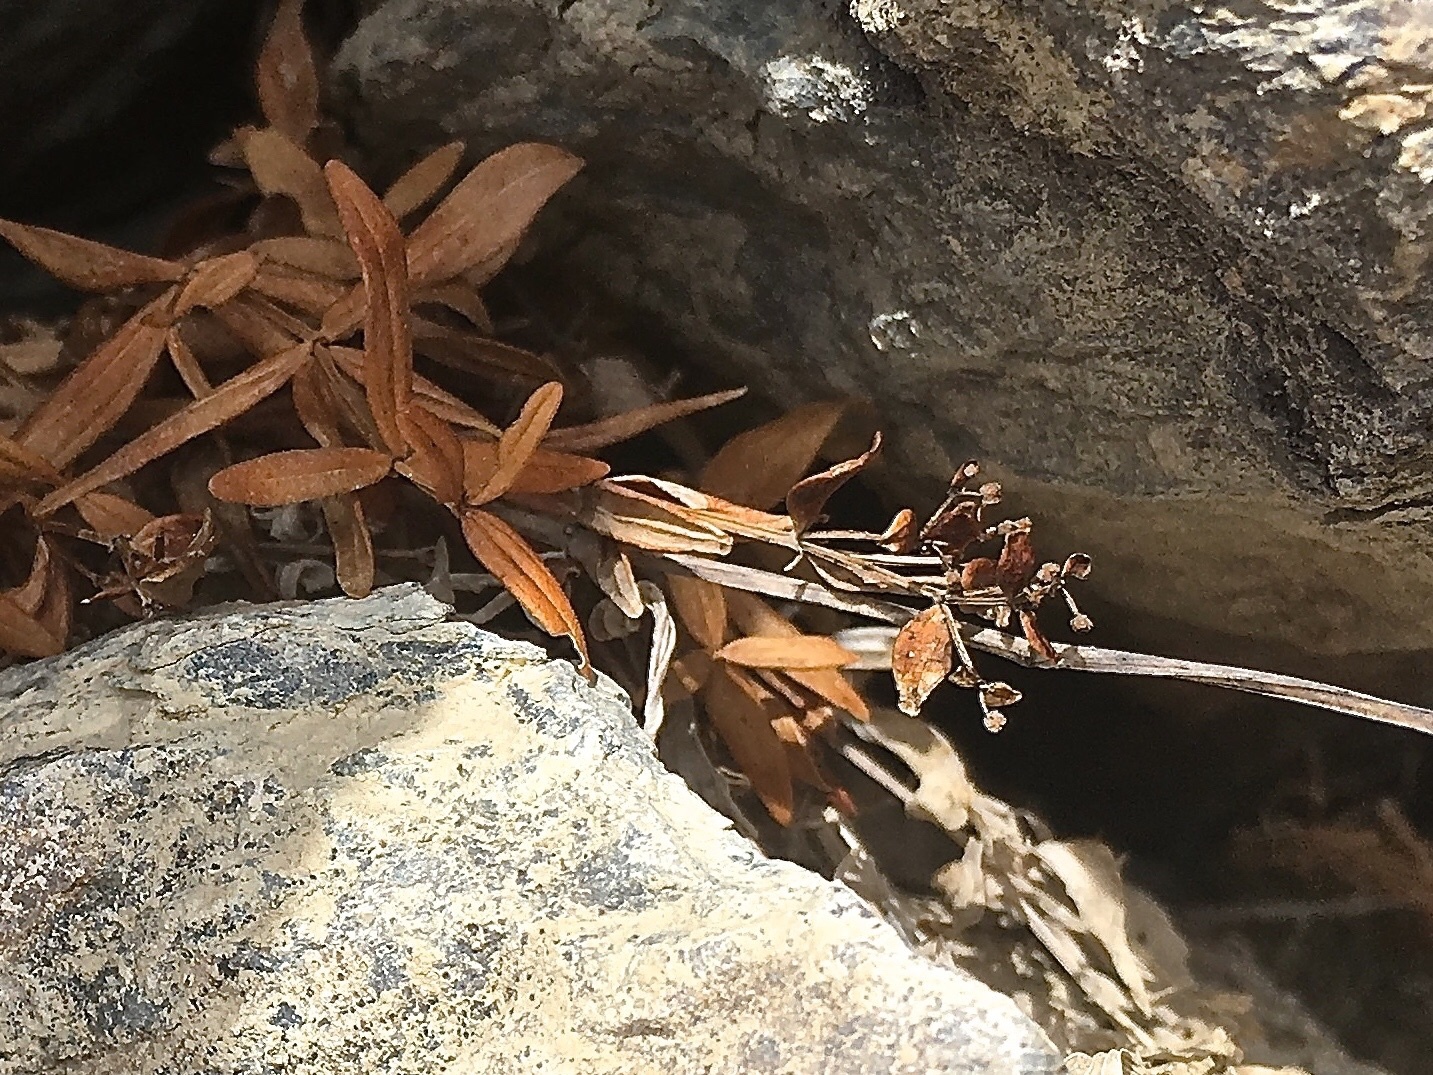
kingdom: Plantae
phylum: Tracheophyta
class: Magnoliopsida
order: Gentianales
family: Rubiaceae
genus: Galium
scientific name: Galium boreale
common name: Northern bedstraw
